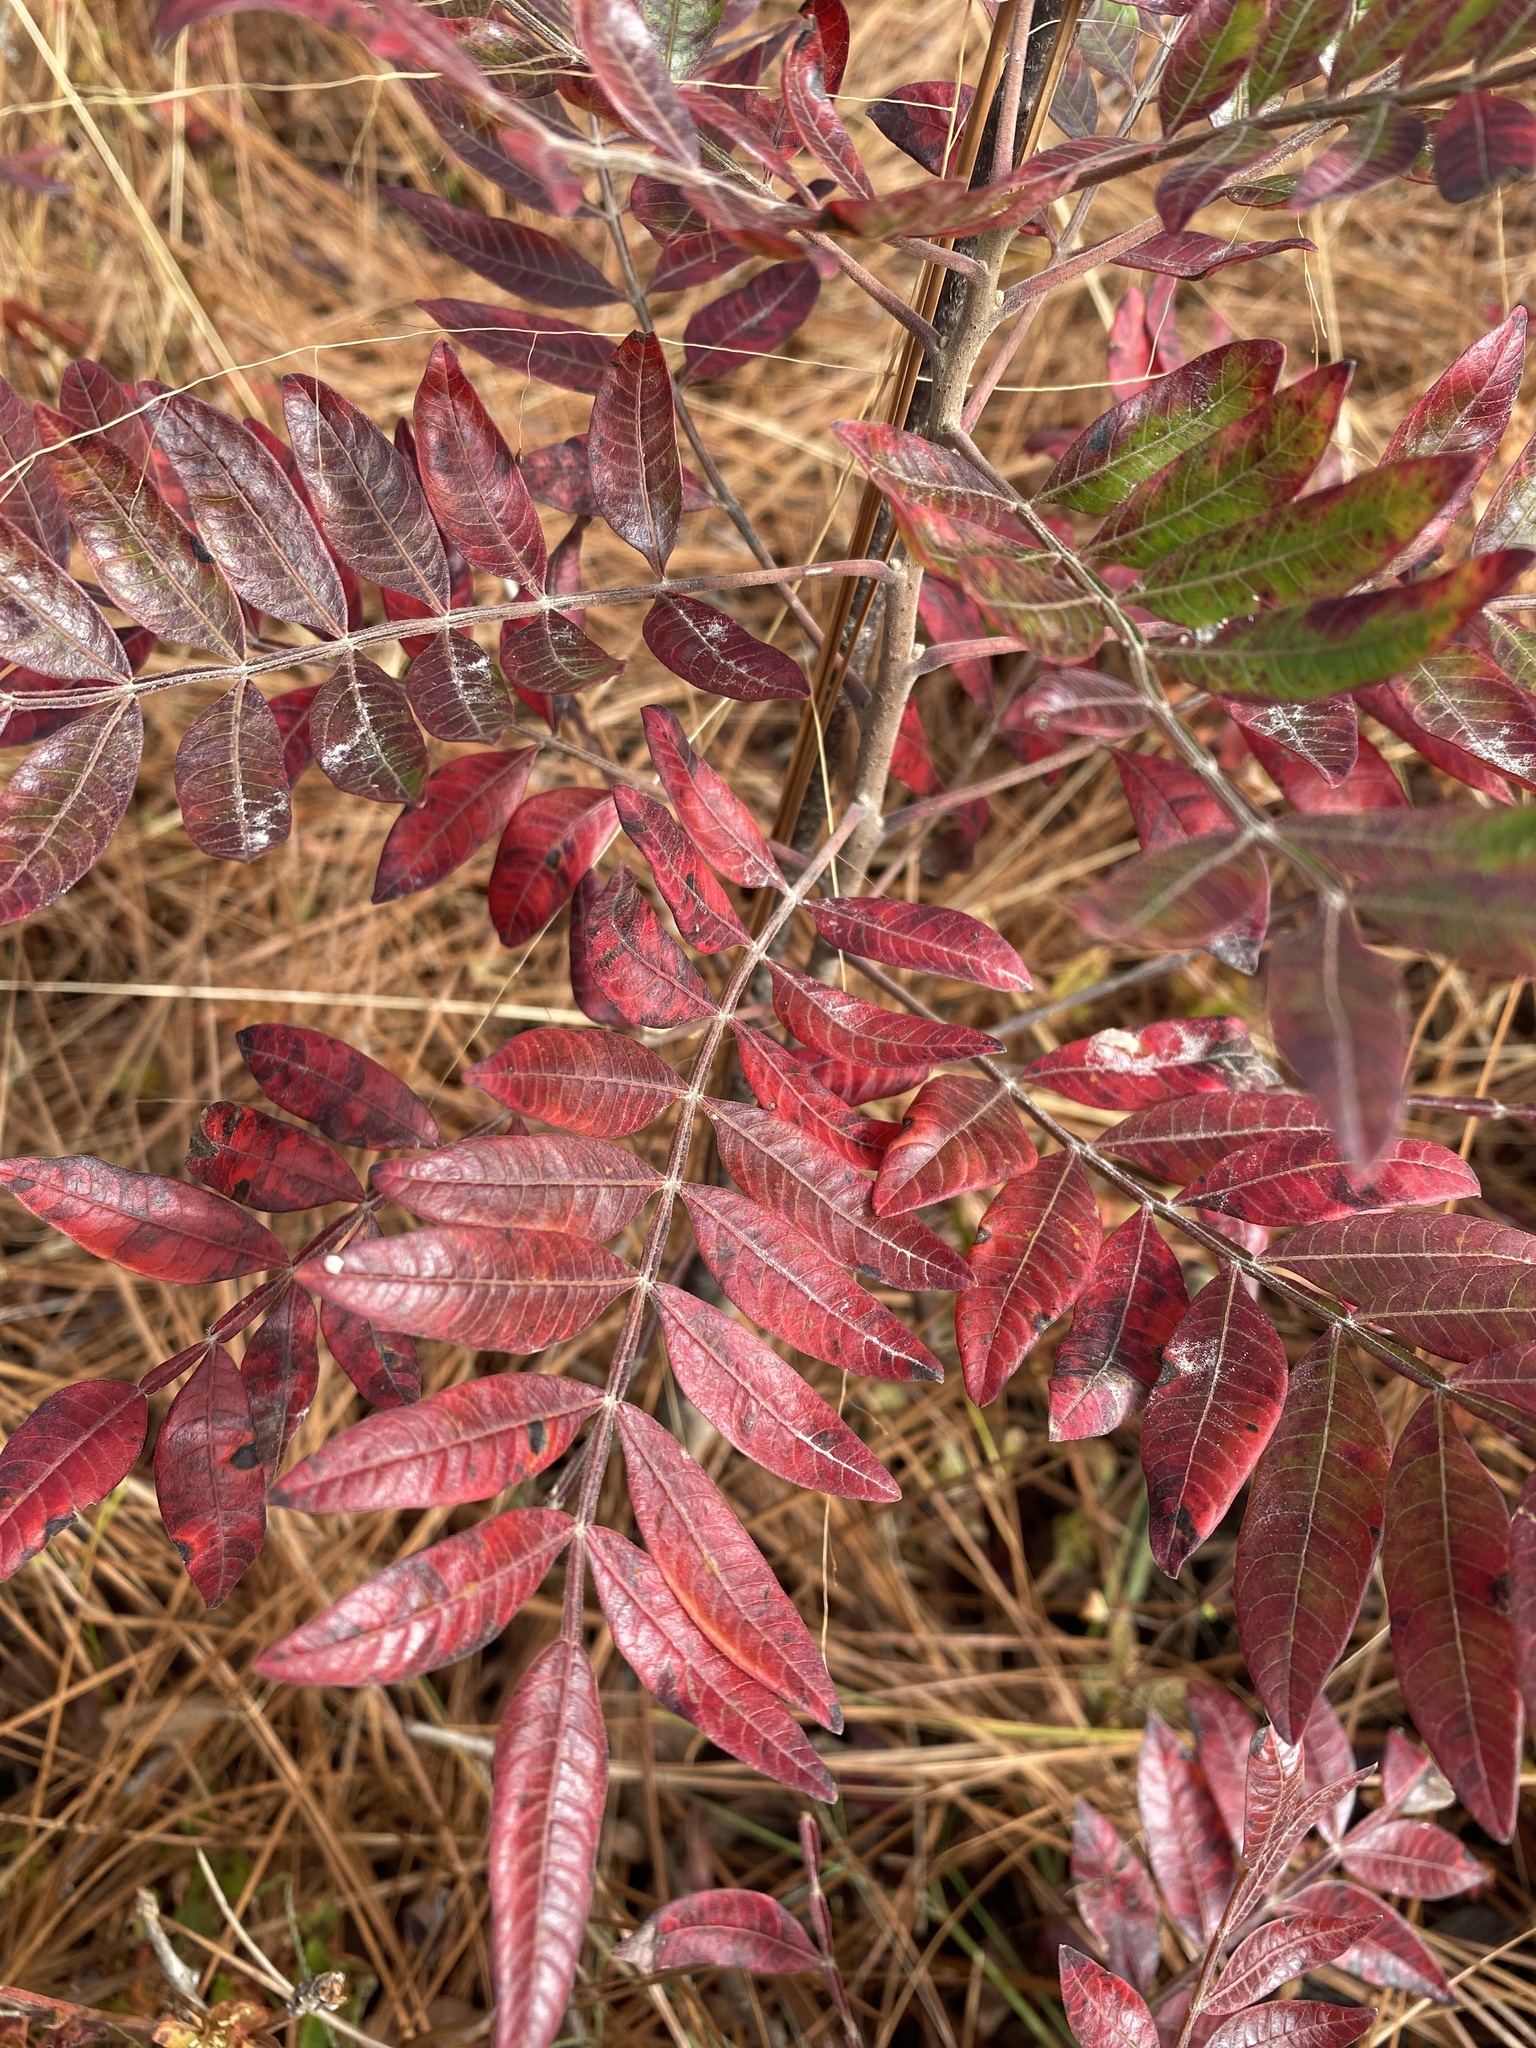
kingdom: Plantae
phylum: Tracheophyta
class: Magnoliopsida
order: Sapindales
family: Anacardiaceae
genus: Rhus
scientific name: Rhus copallina
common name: Shining sumac
